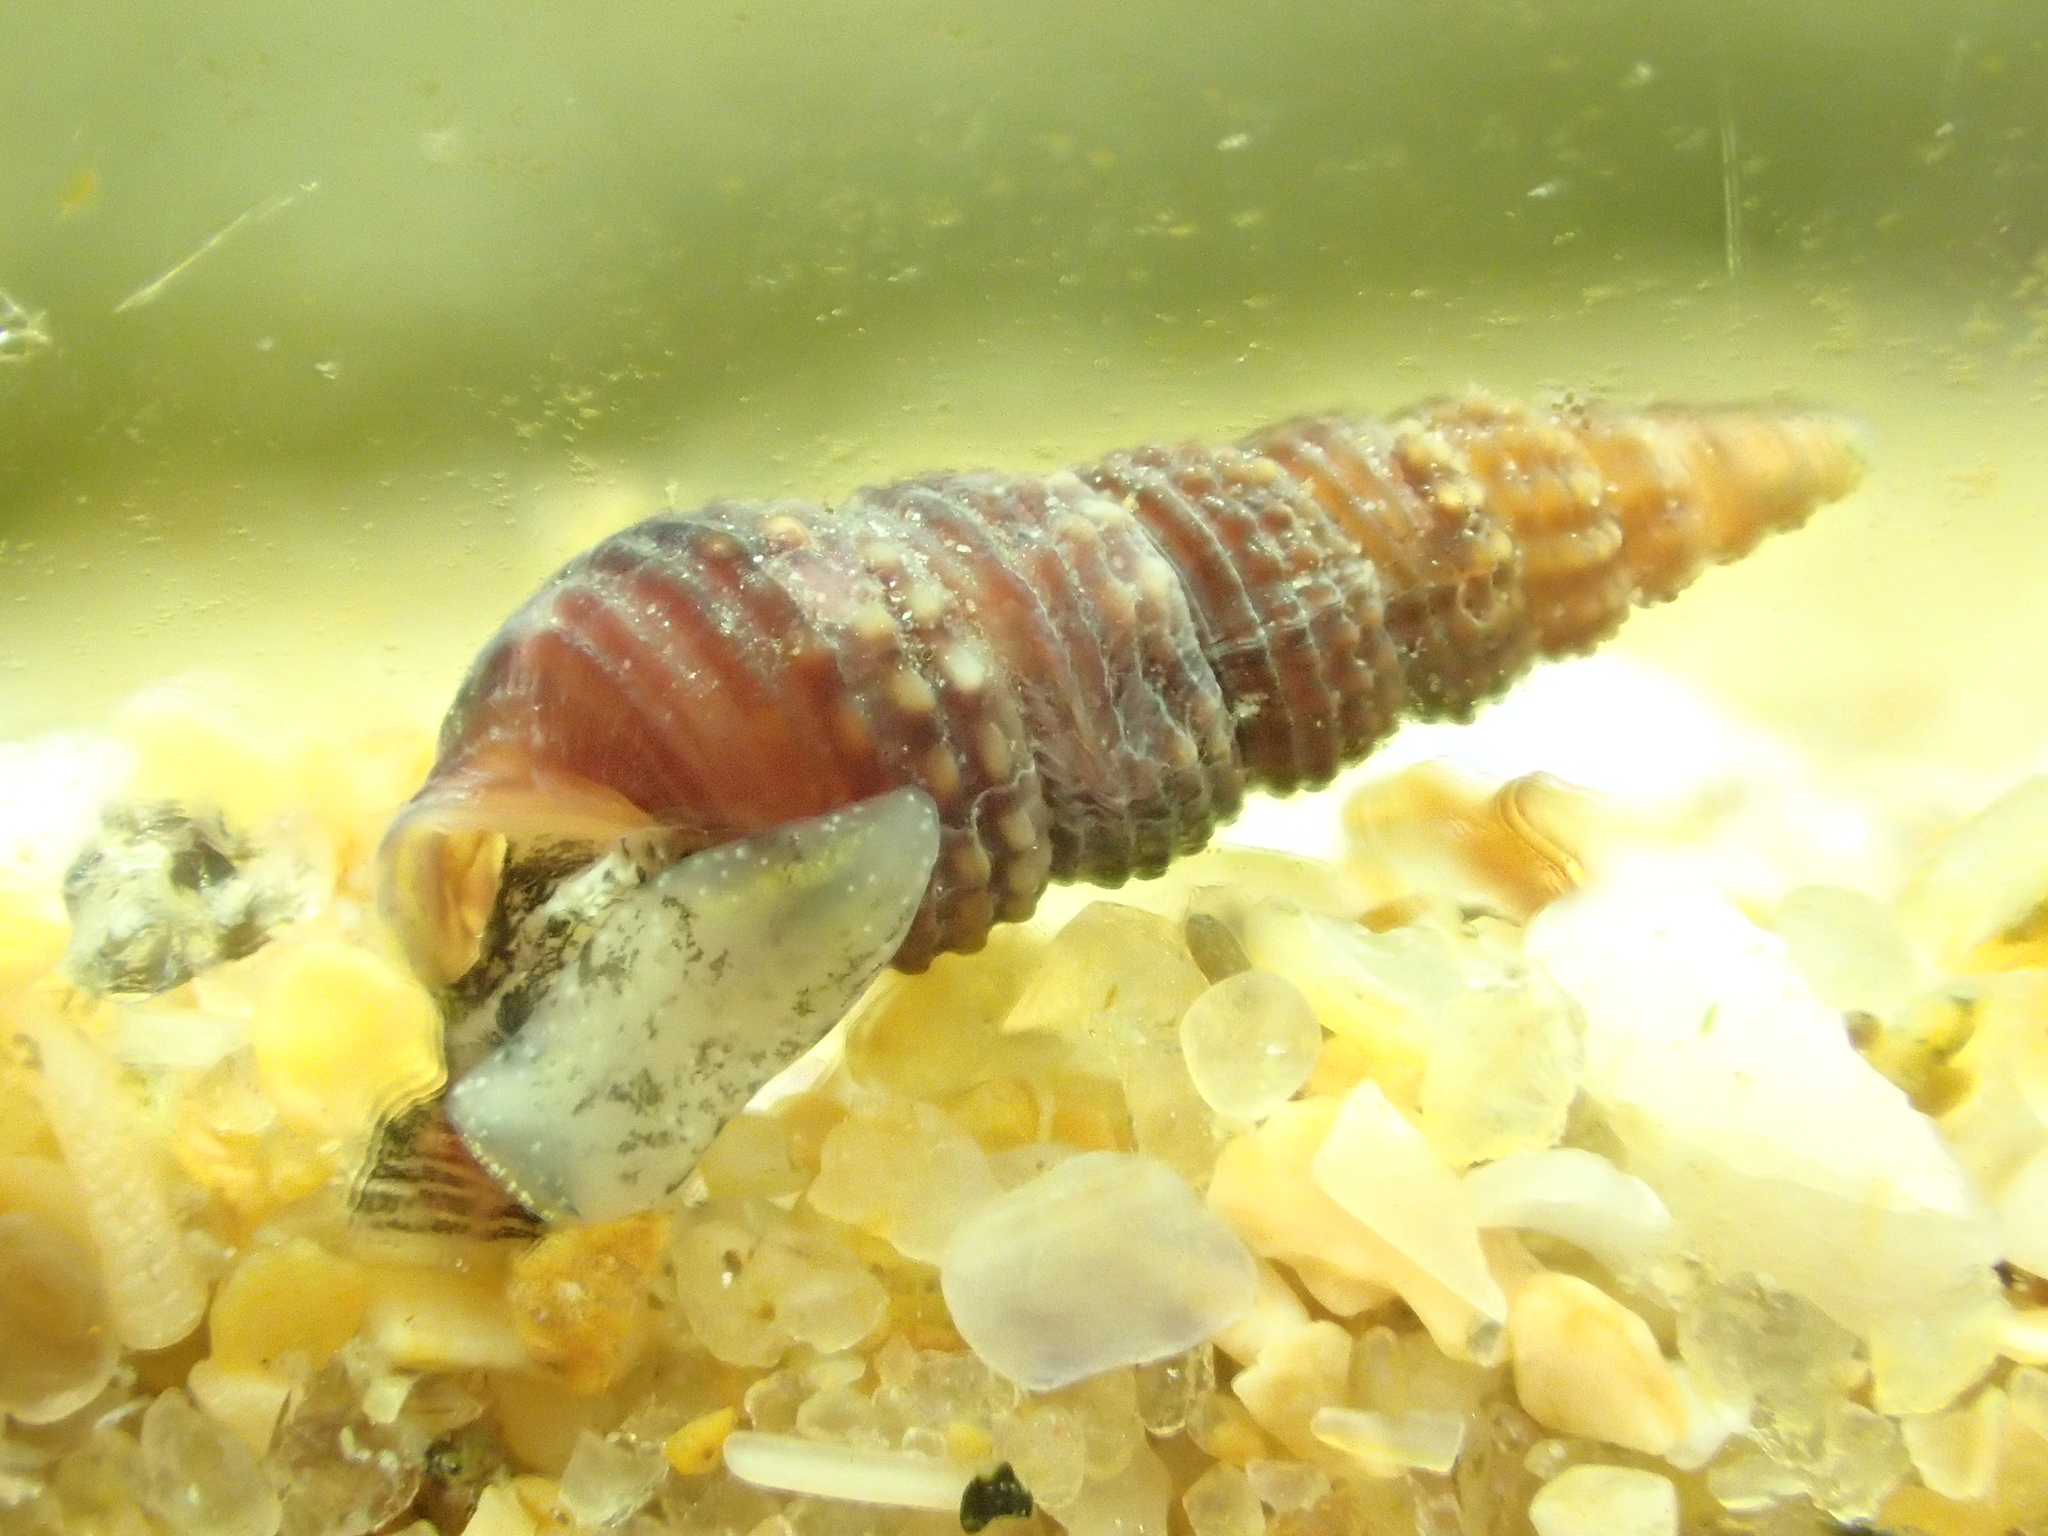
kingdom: Animalia
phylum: Mollusca
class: Gastropoda
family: Cerithiidae
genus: Bittium
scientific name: Bittium reticulatum
